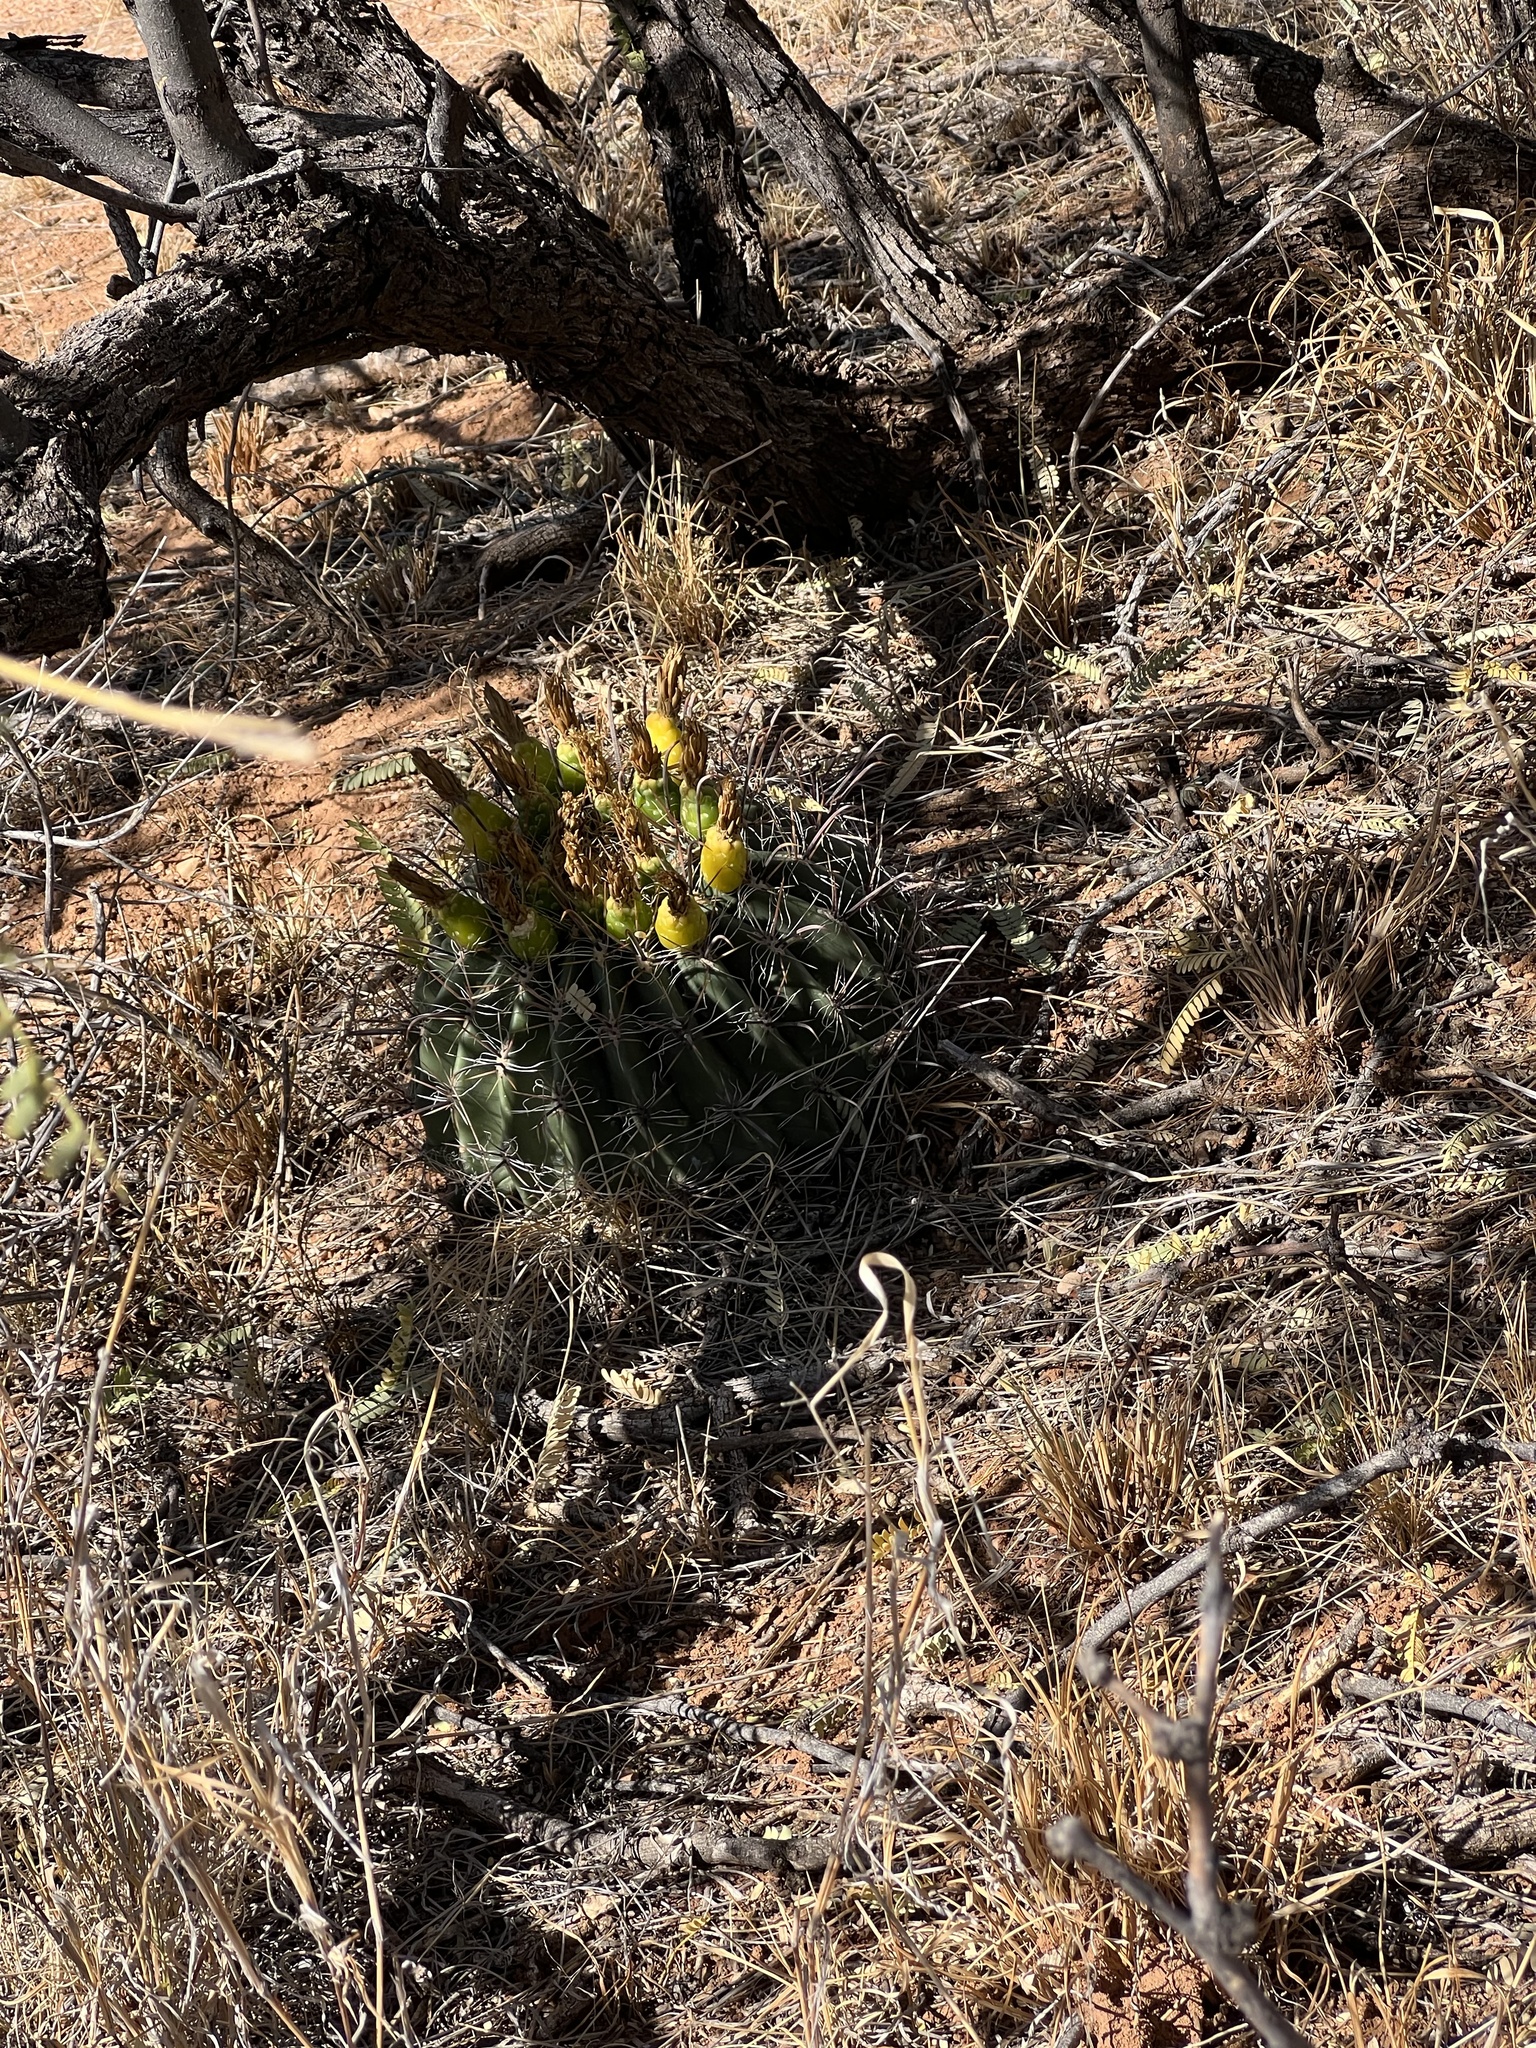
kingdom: Plantae
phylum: Tracheophyta
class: Magnoliopsida
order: Caryophyllales
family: Cactaceae
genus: Ferocactus
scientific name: Ferocactus wislizeni
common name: Candy barrel cactus
